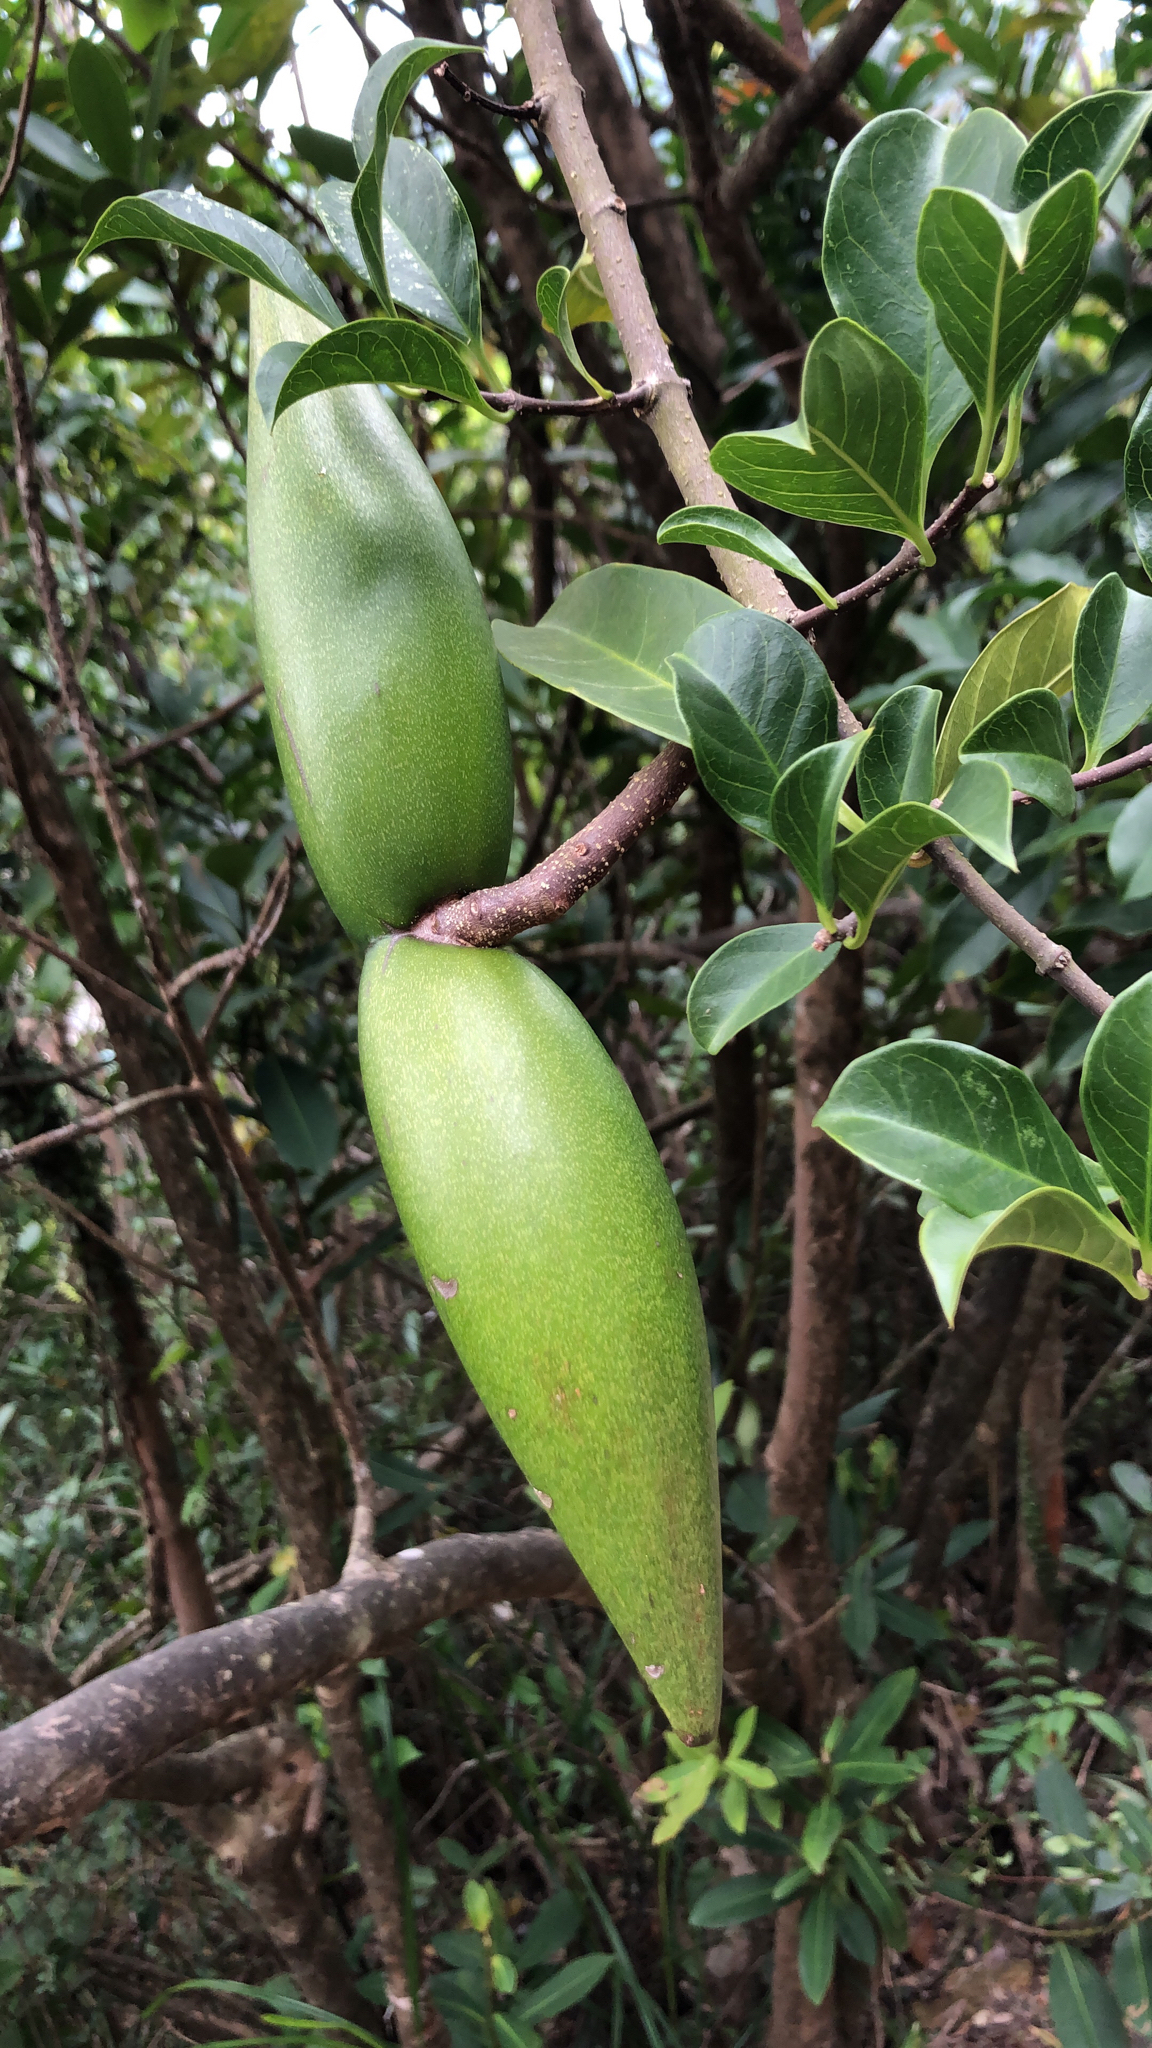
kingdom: Plantae
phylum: Tracheophyta
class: Magnoliopsida
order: Gentianales
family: Apocynaceae
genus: Strophanthus
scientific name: Strophanthus divaricatus
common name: Goat-horns
